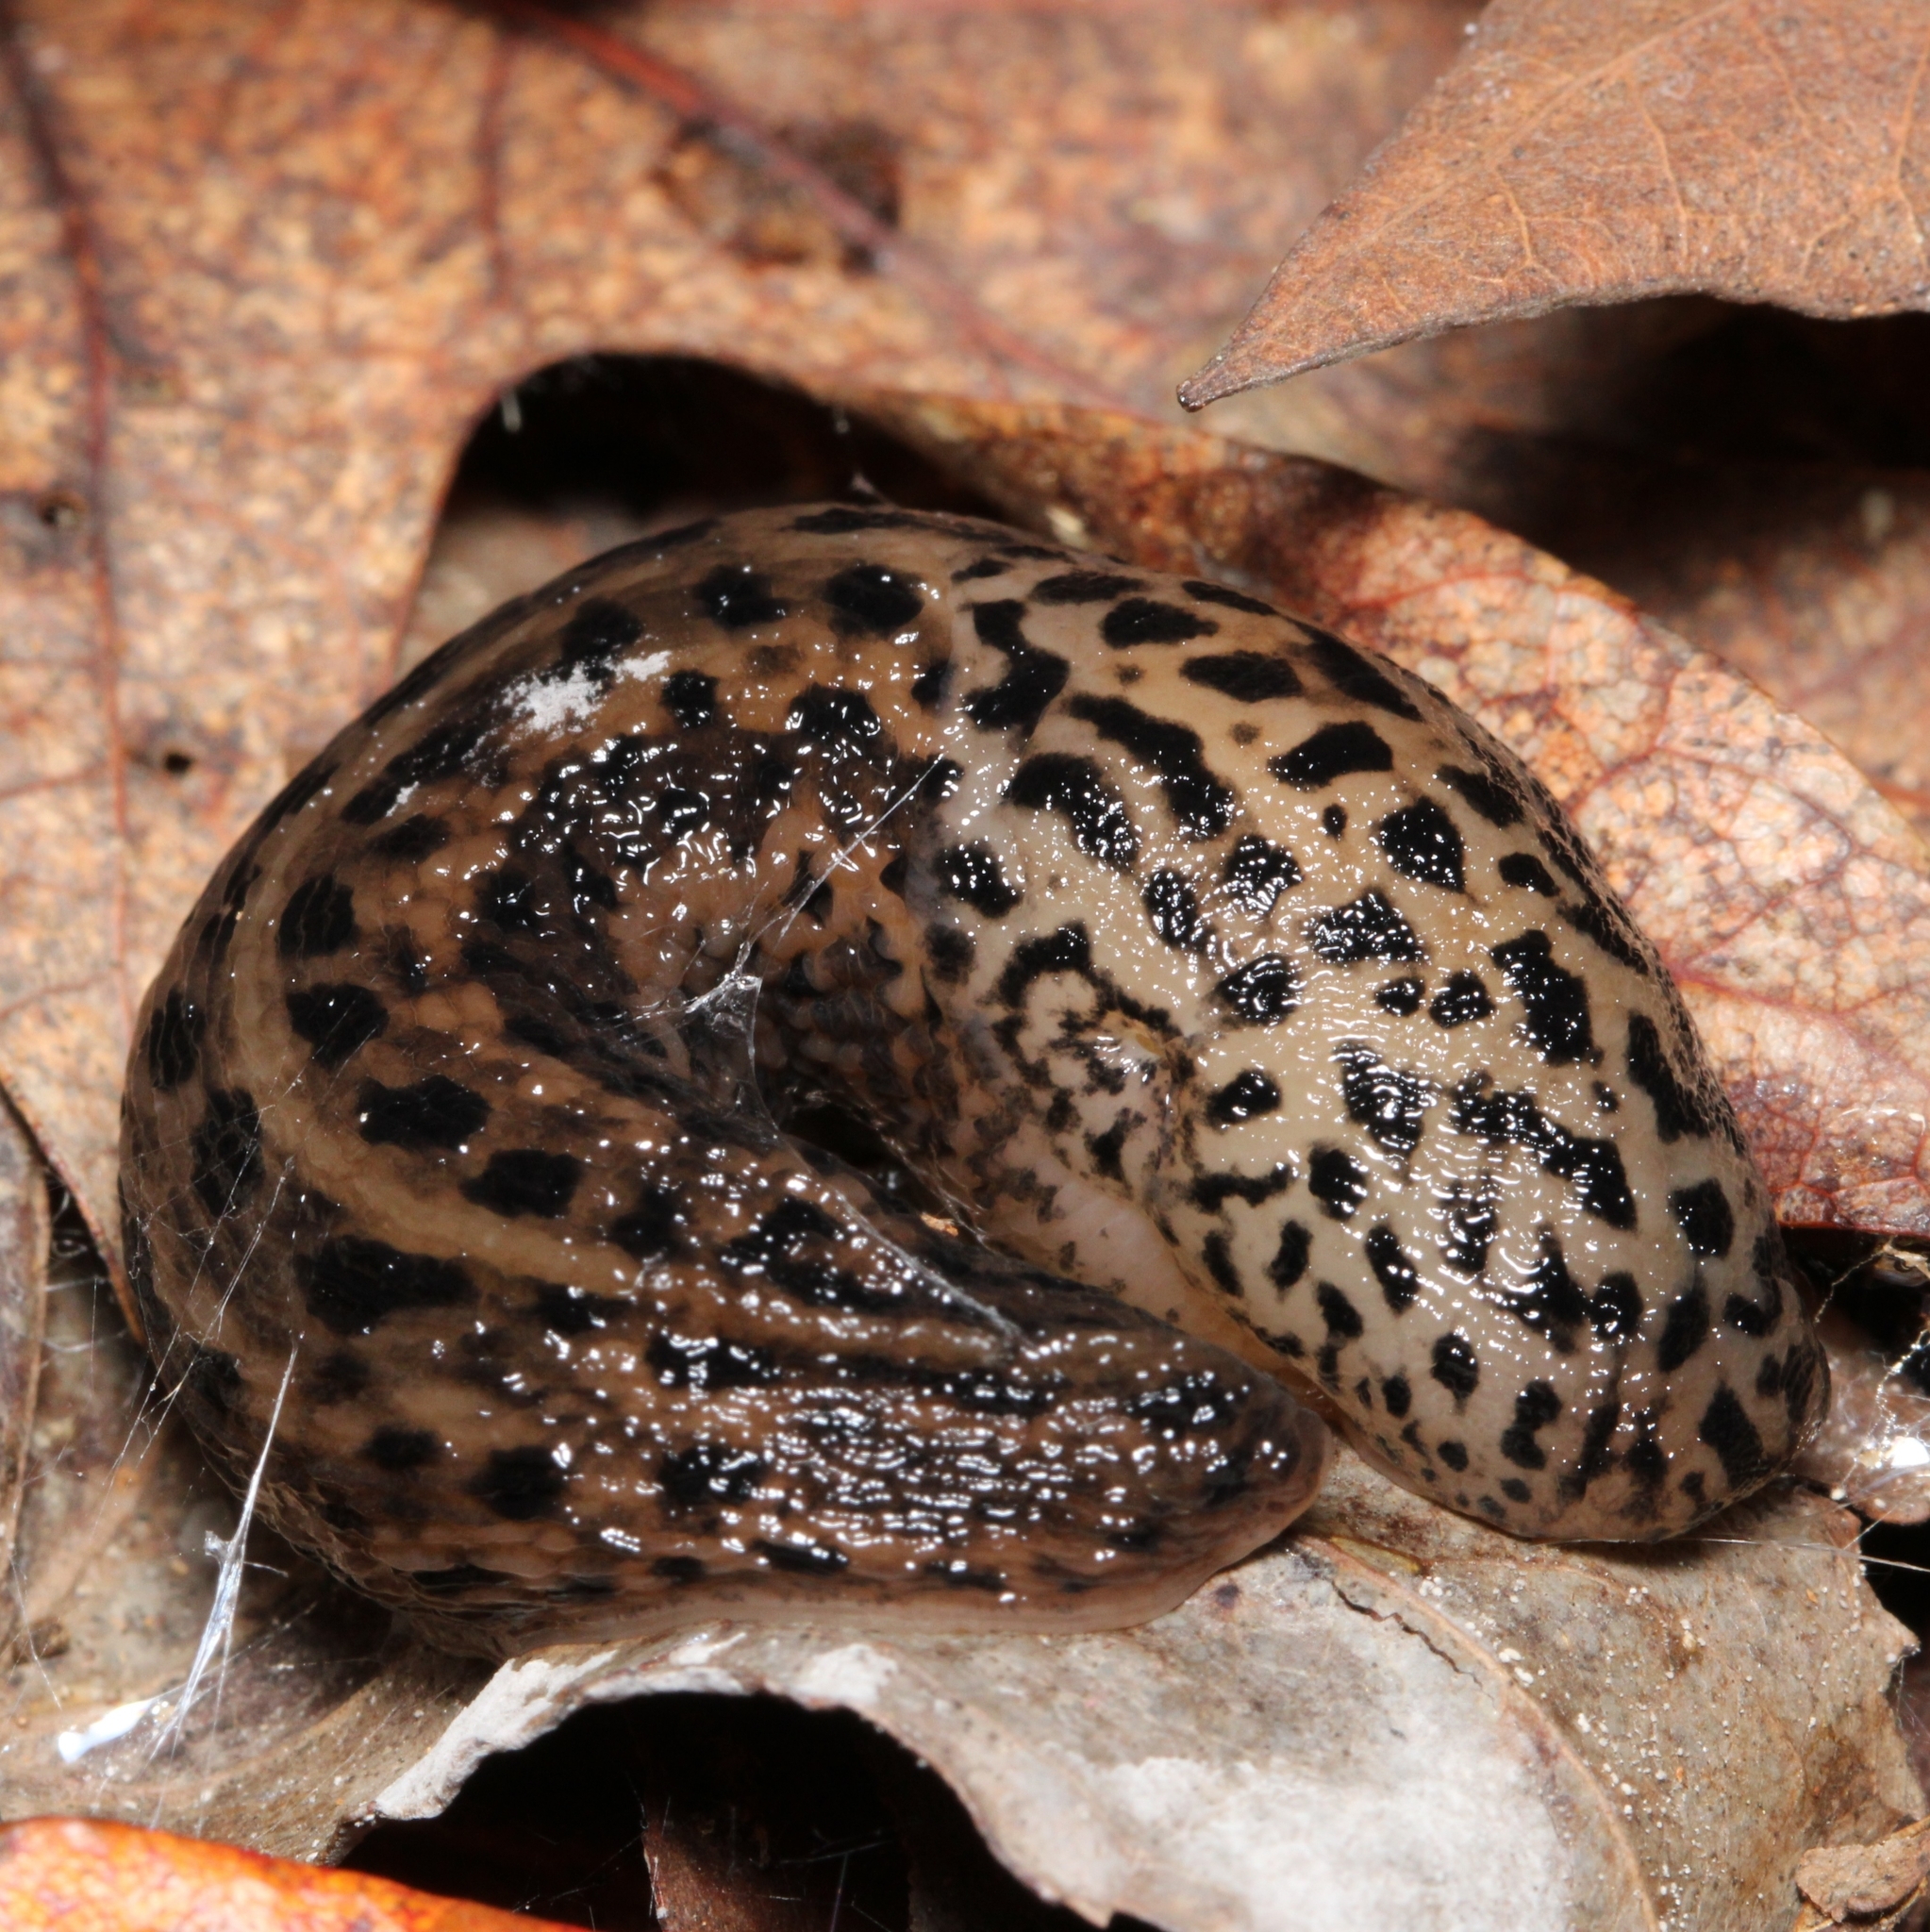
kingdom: Animalia
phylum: Mollusca
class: Gastropoda
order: Stylommatophora
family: Limacidae
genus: Limax
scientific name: Limax maximus
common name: Great grey slug
